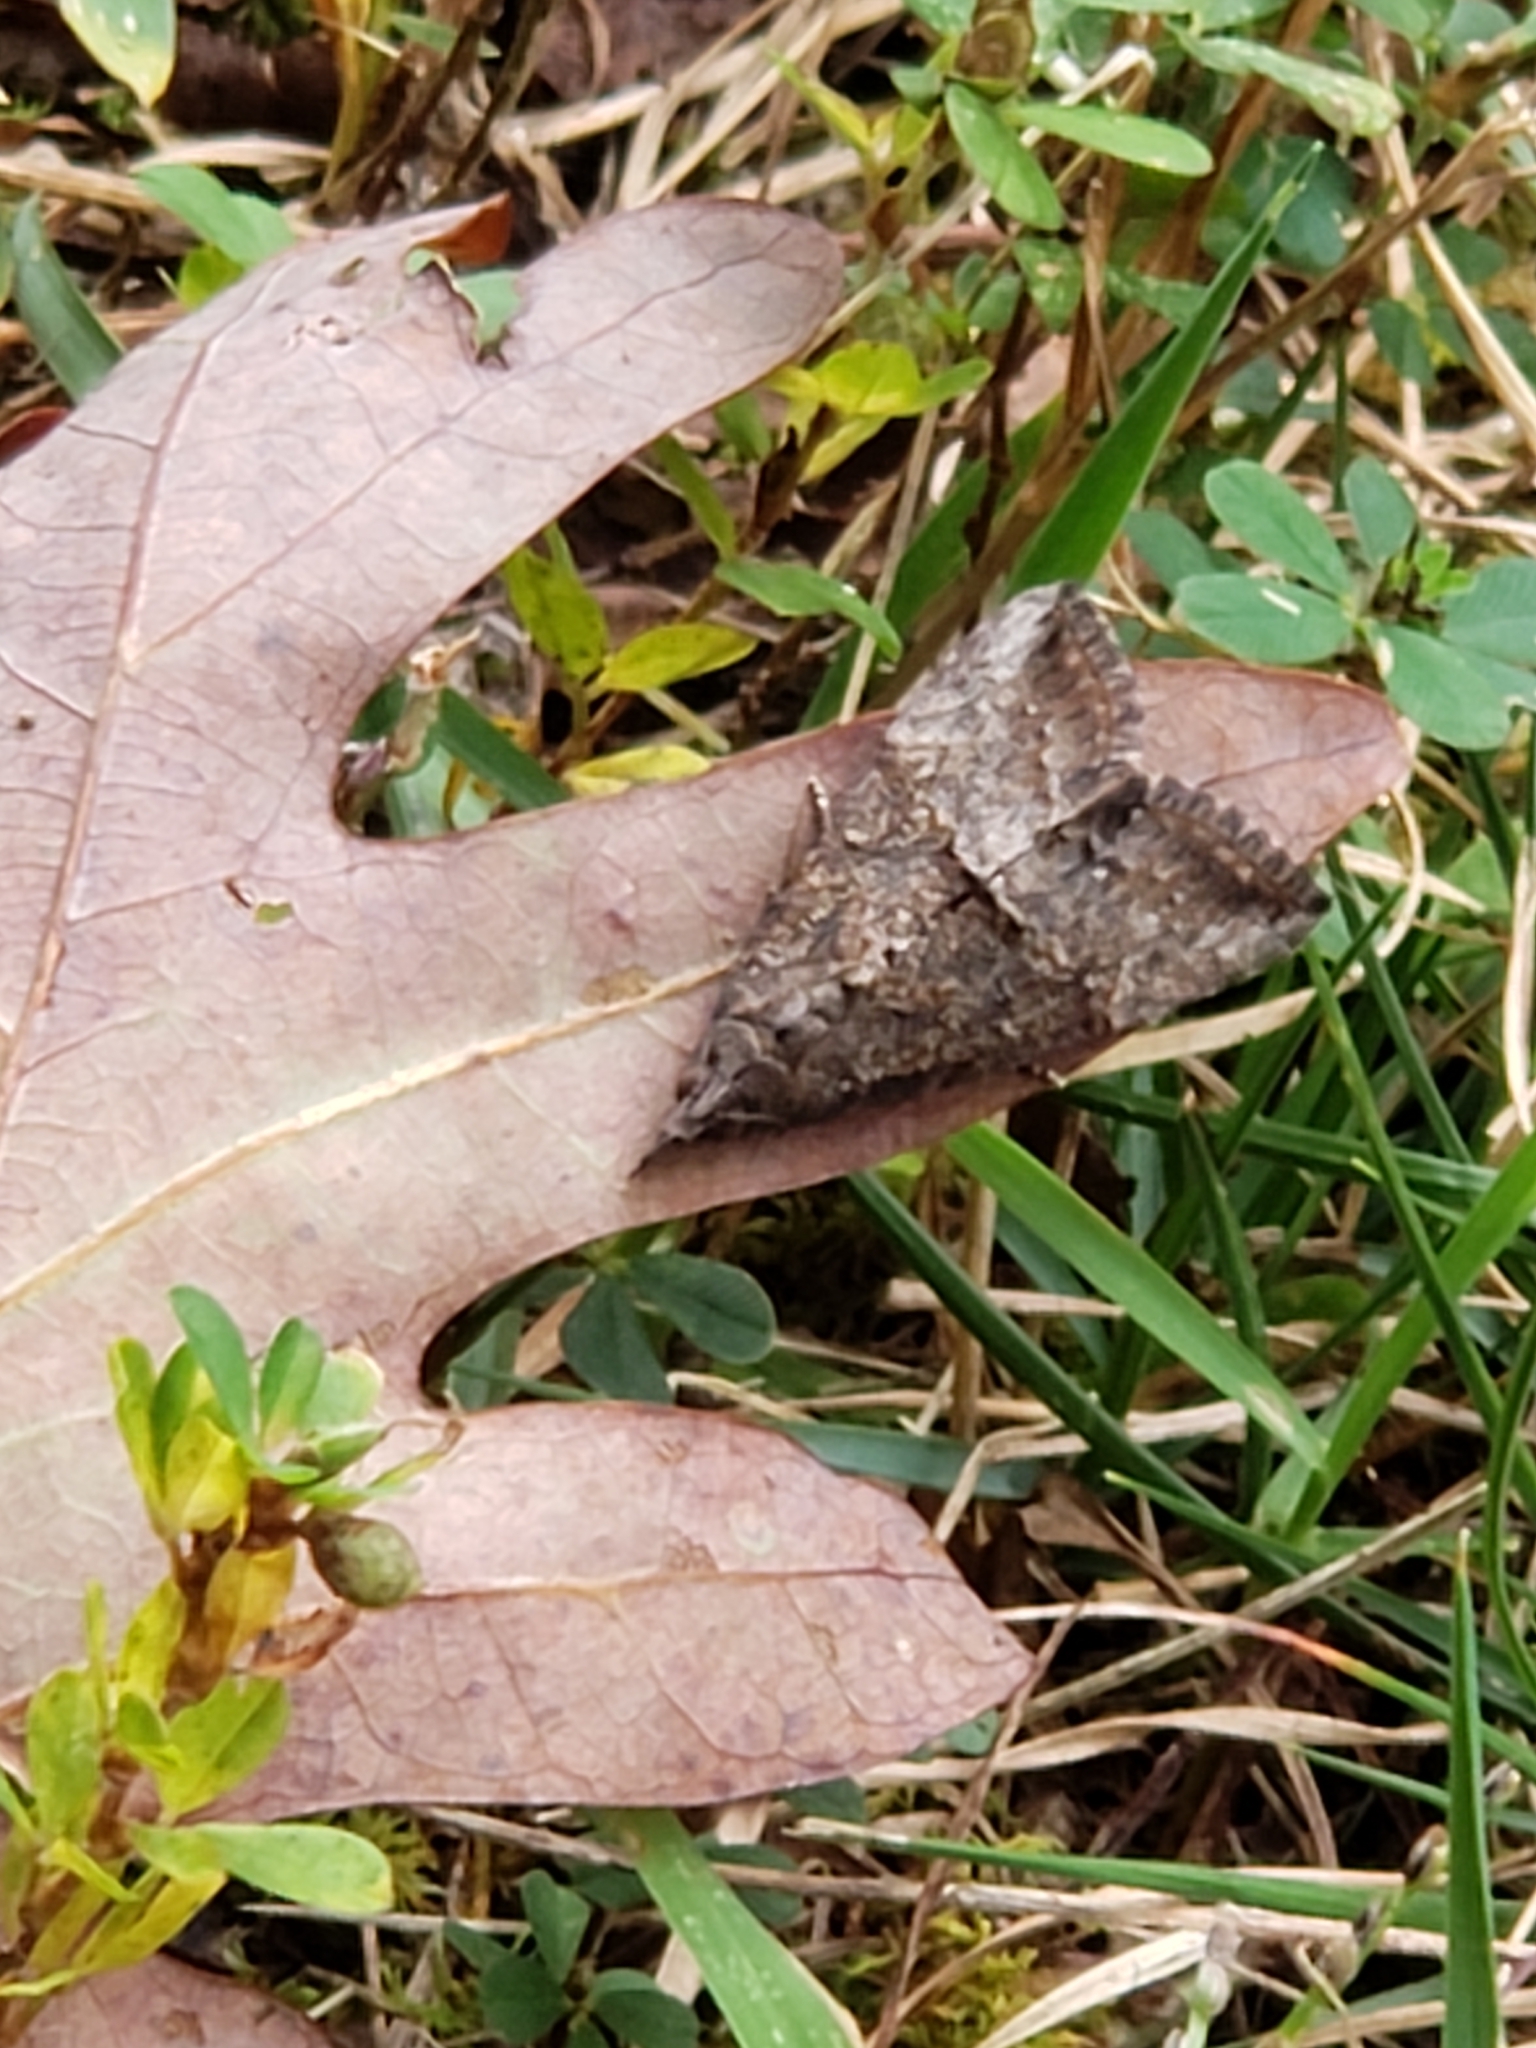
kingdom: Animalia
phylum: Arthropoda
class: Insecta
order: Lepidoptera
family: Erebidae
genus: Hypena
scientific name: Hypena scabra
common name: Green cloverworm
